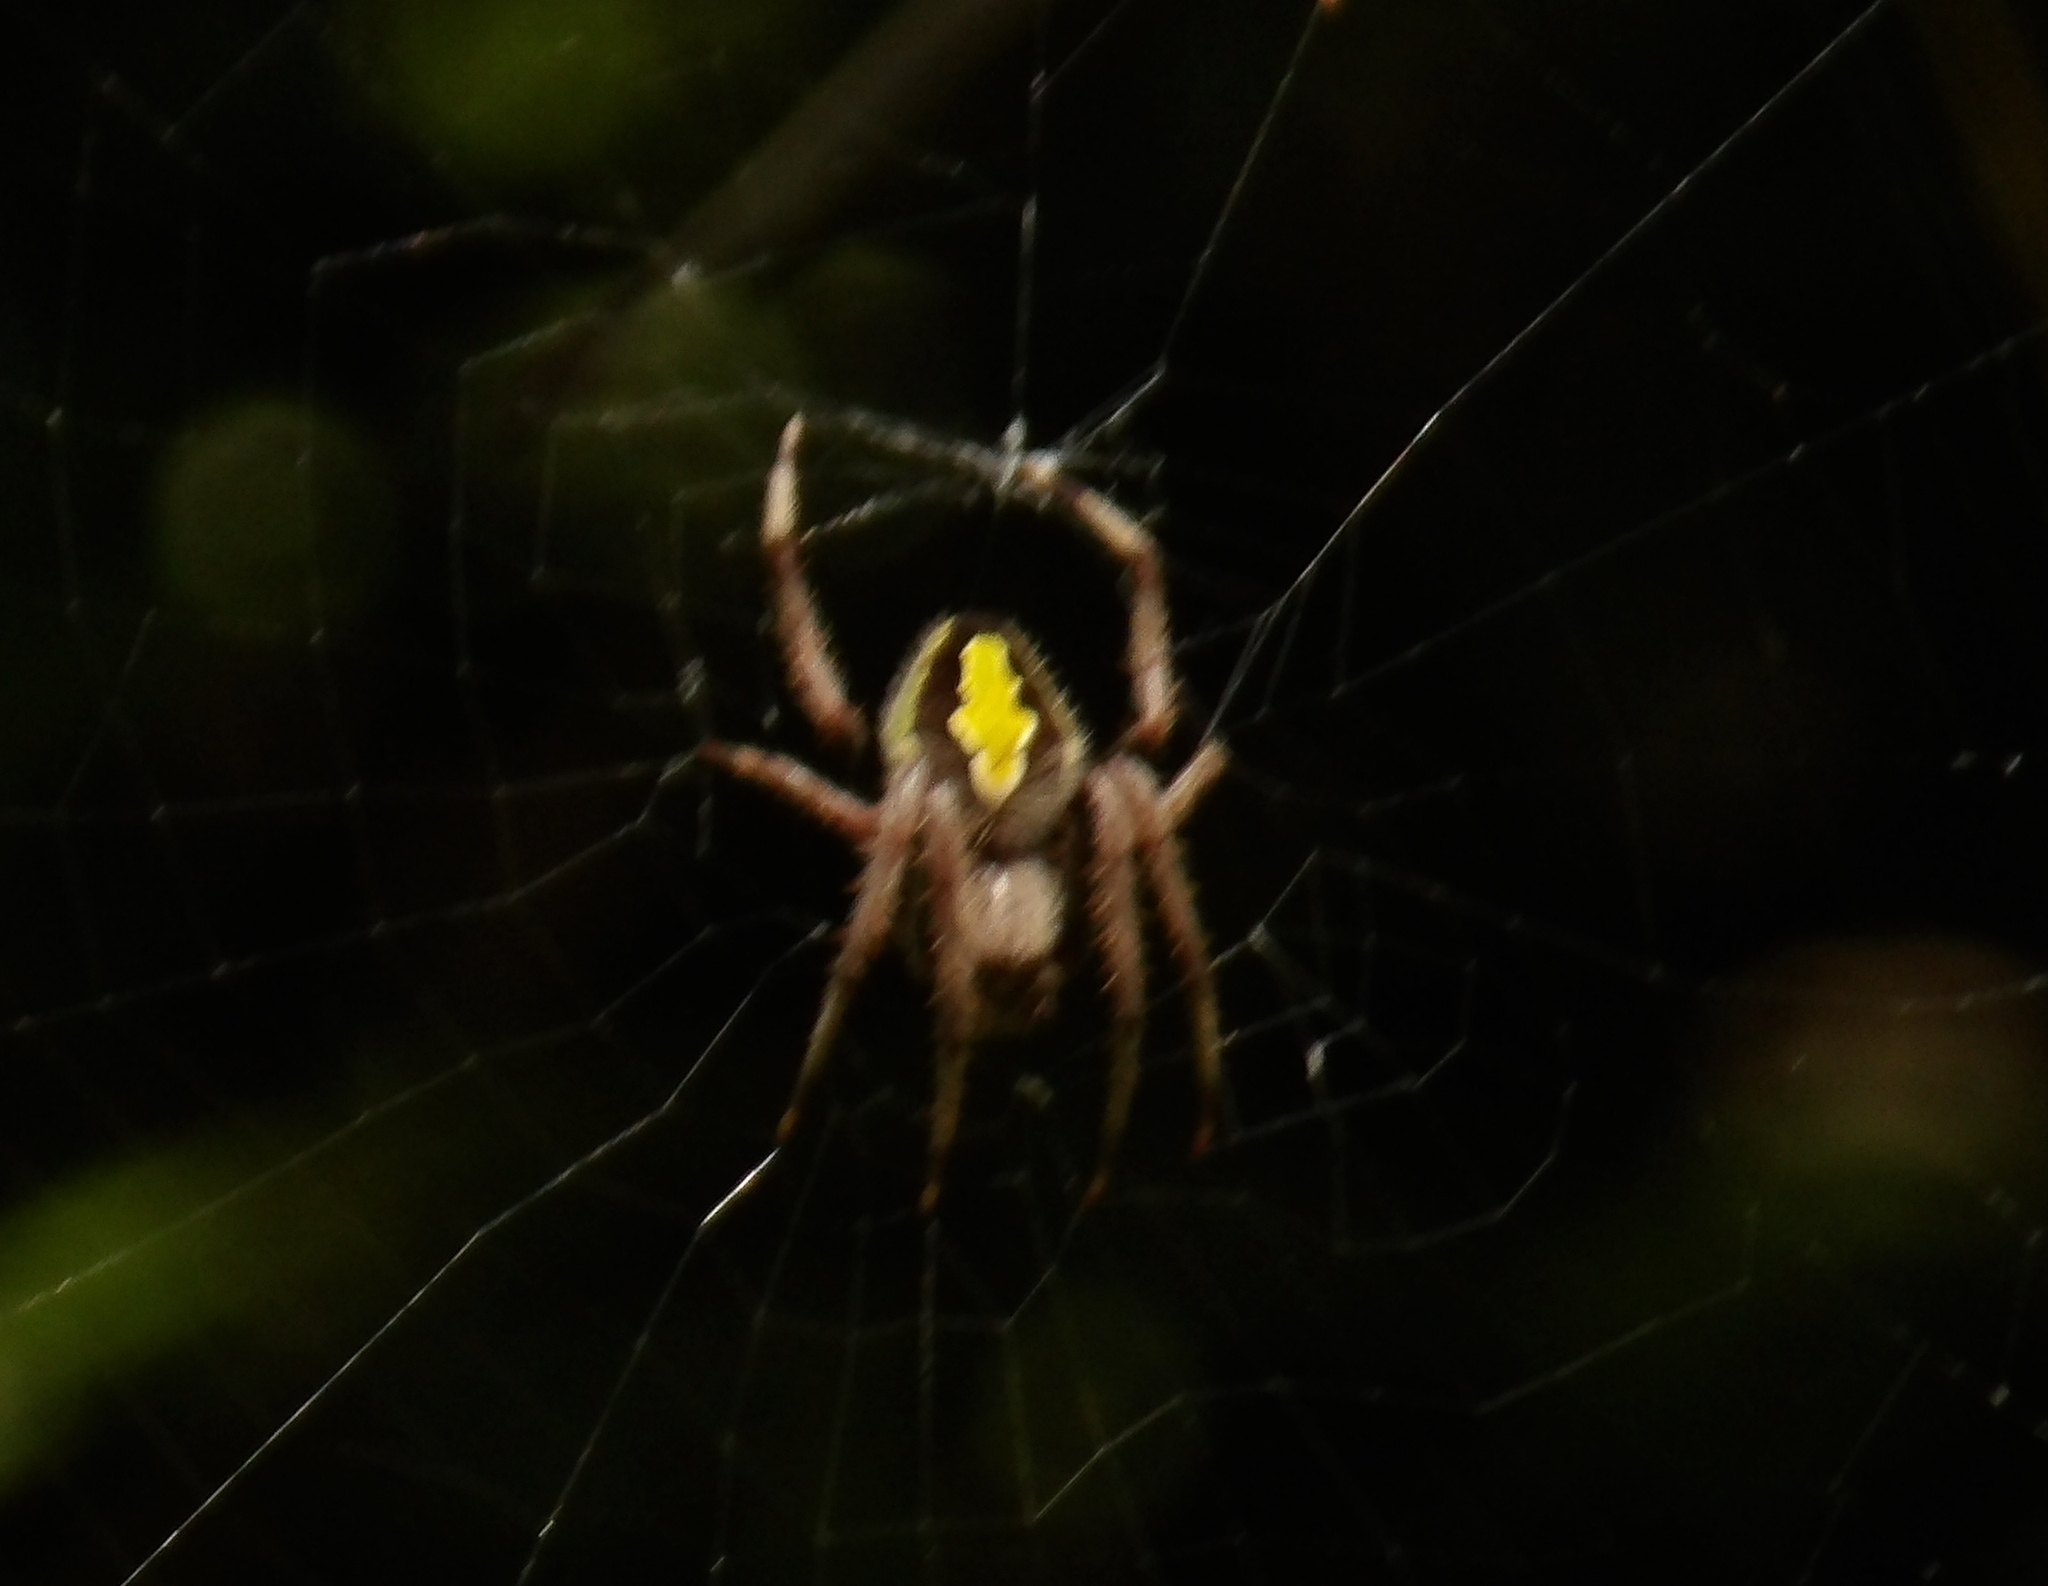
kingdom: Animalia
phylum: Arthropoda
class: Arachnida
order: Araneae
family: Araneidae
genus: Eriophora
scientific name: Eriophora ravilla
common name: Orb weavers
